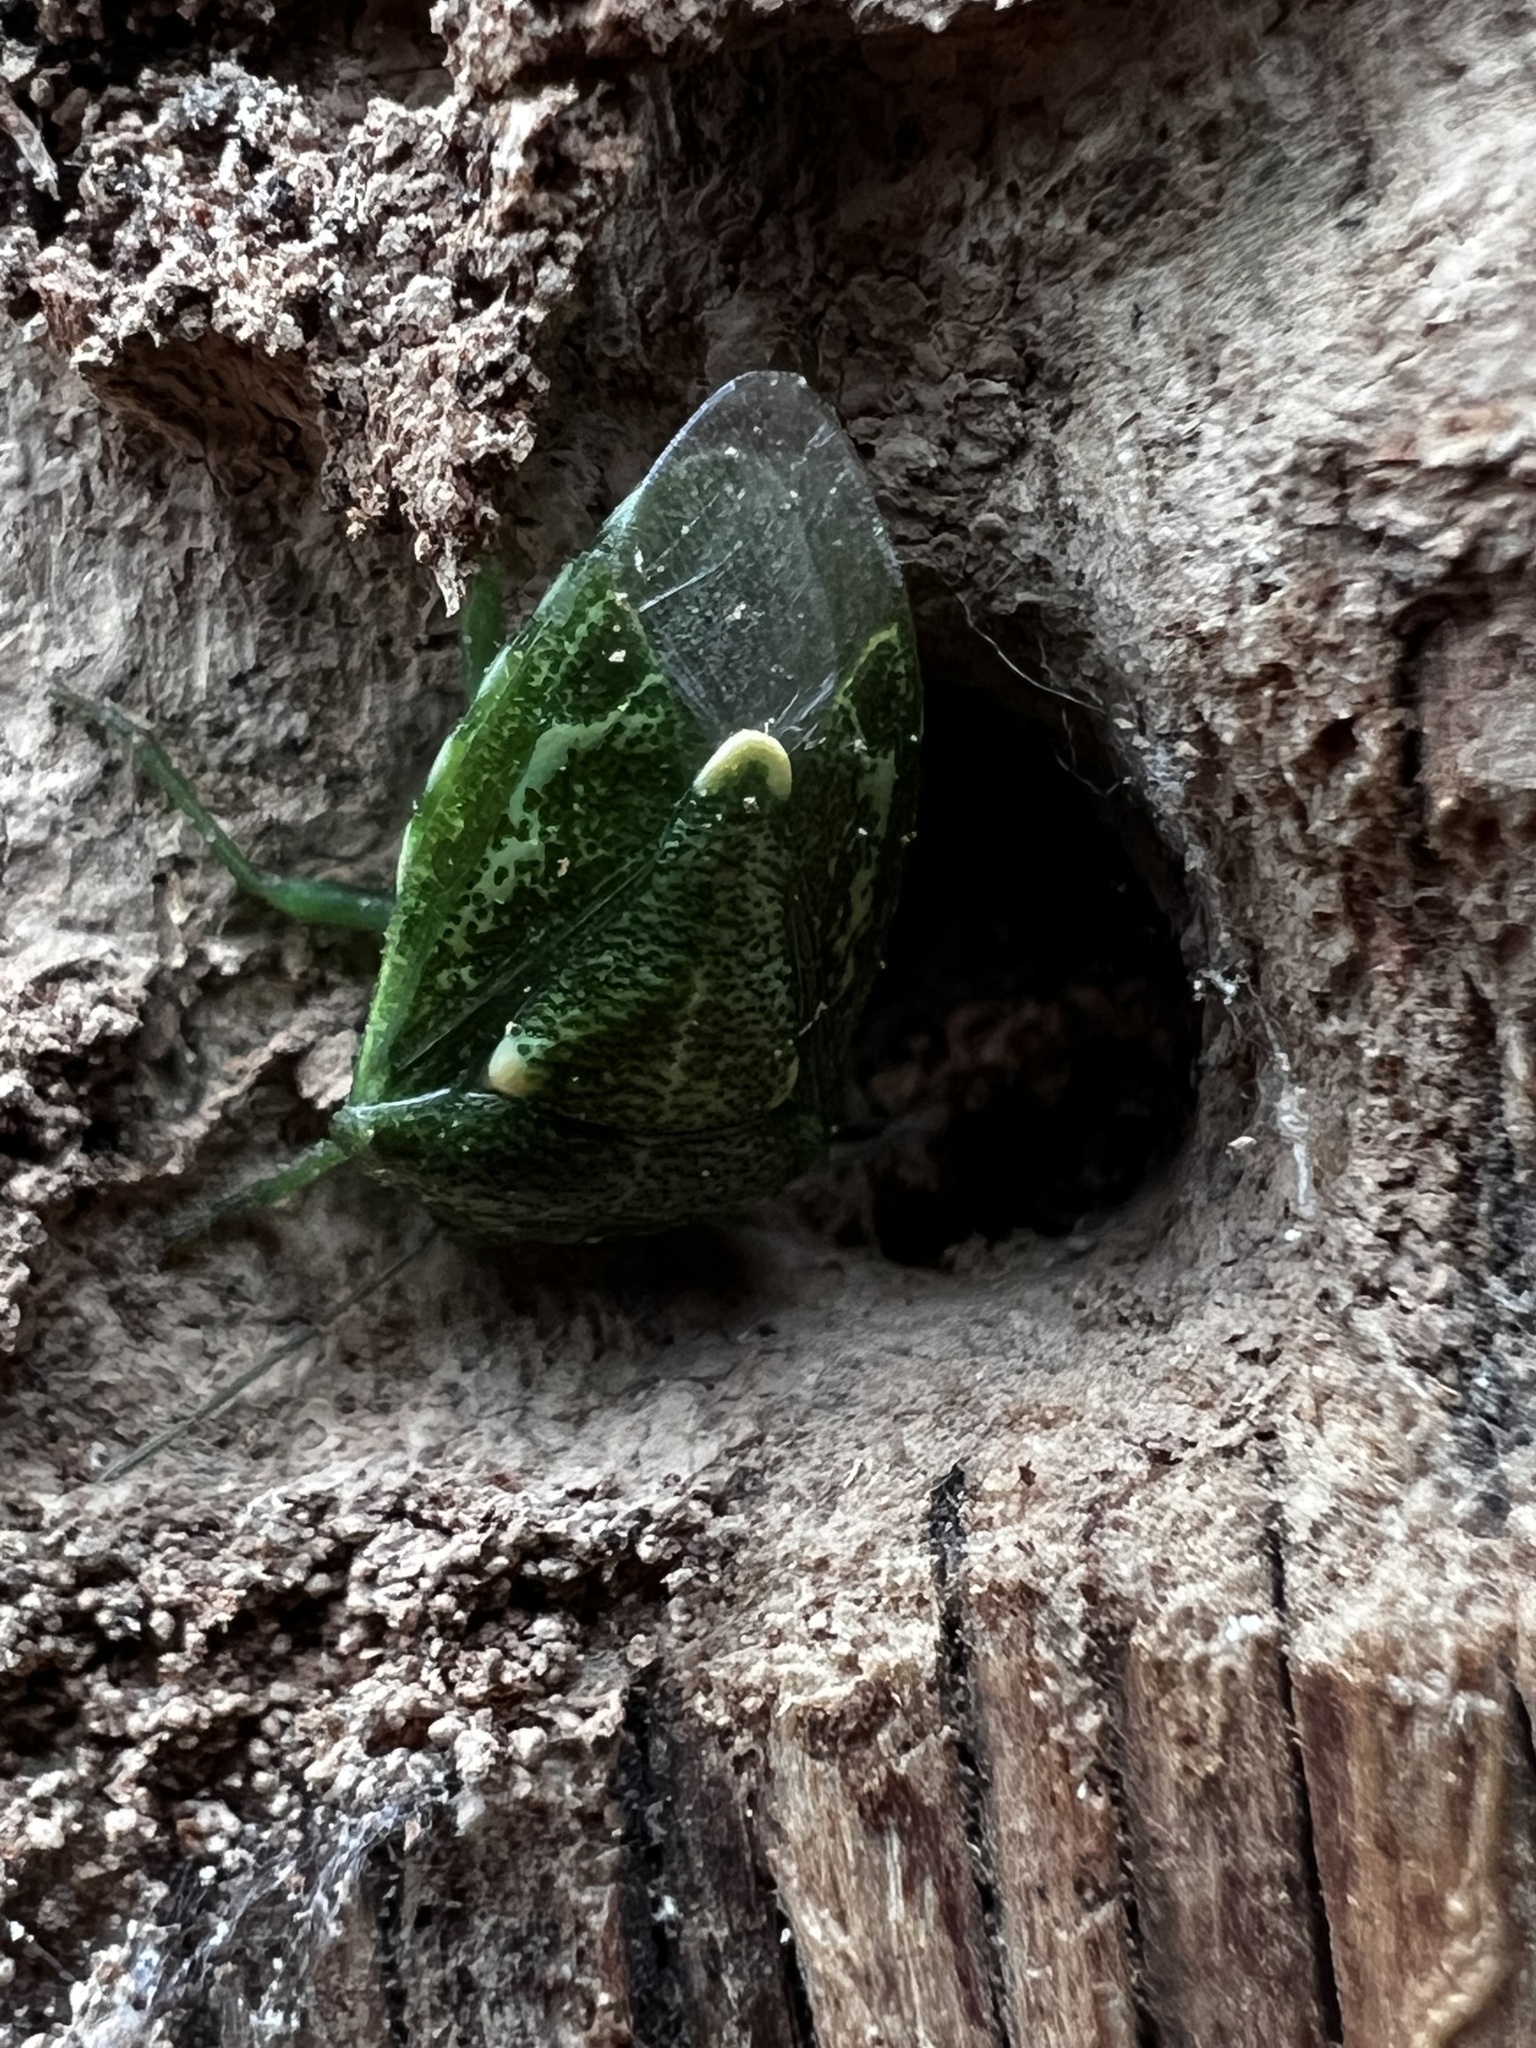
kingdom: Animalia
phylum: Arthropoda
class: Insecta
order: Hemiptera
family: Pentatomidae
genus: Banasa
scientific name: Banasa euchlora
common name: Cedar berry bug
